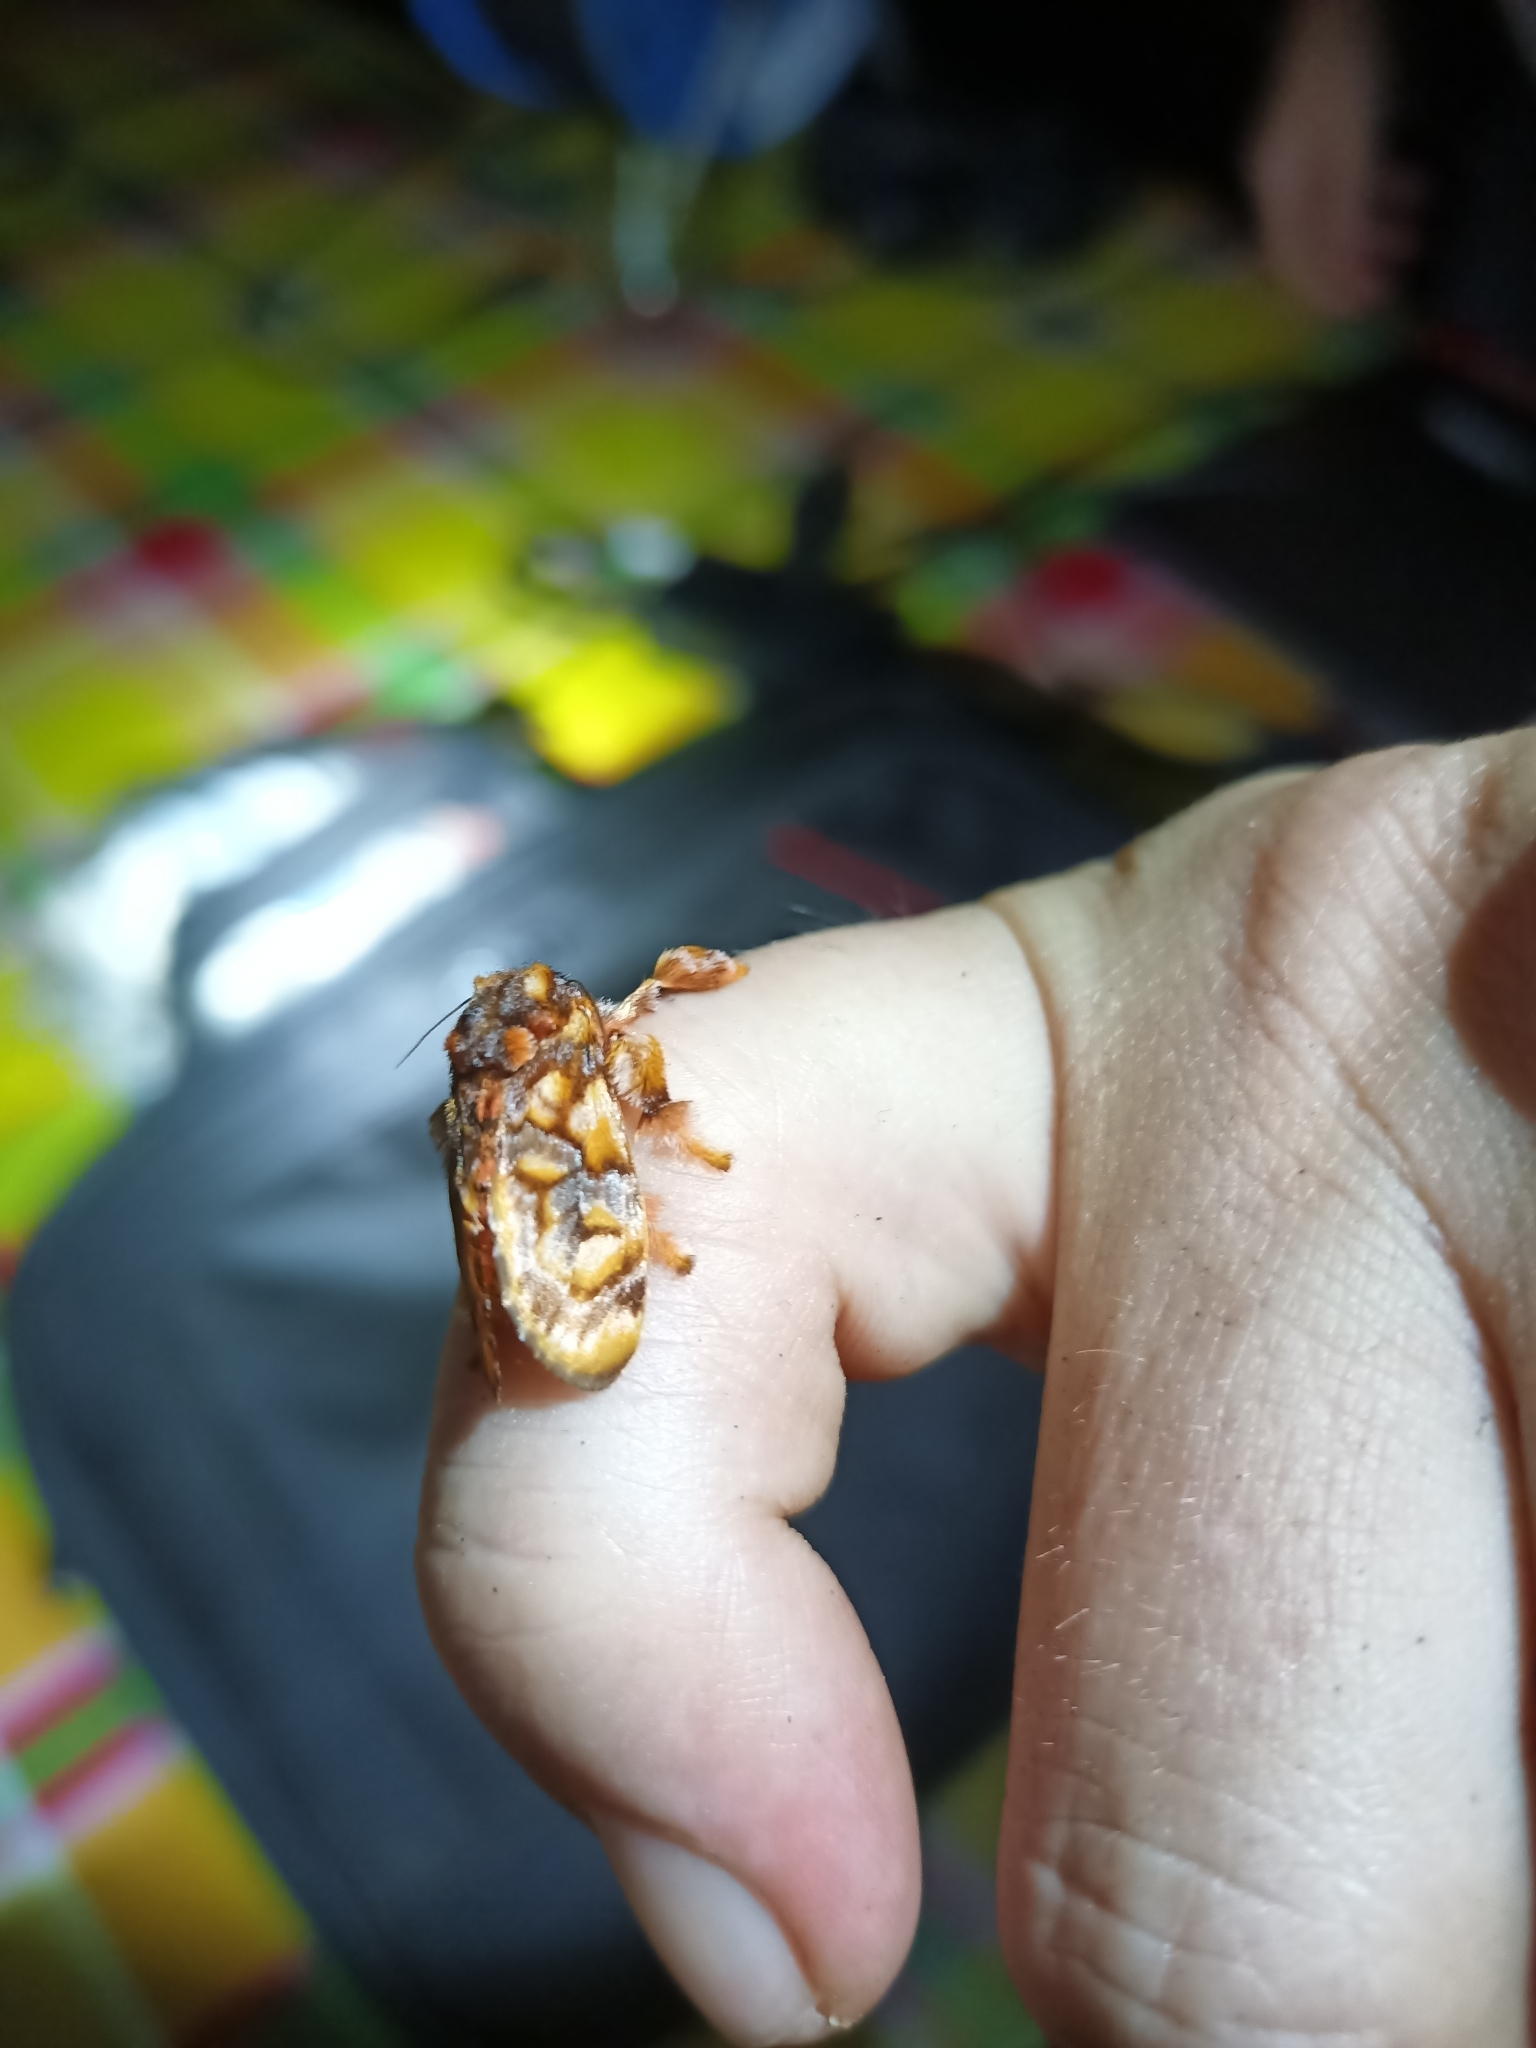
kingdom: Animalia
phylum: Arthropoda
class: Insecta
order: Lepidoptera
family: Limacodidae
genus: Phobetron
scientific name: Phobetron hipparchia
